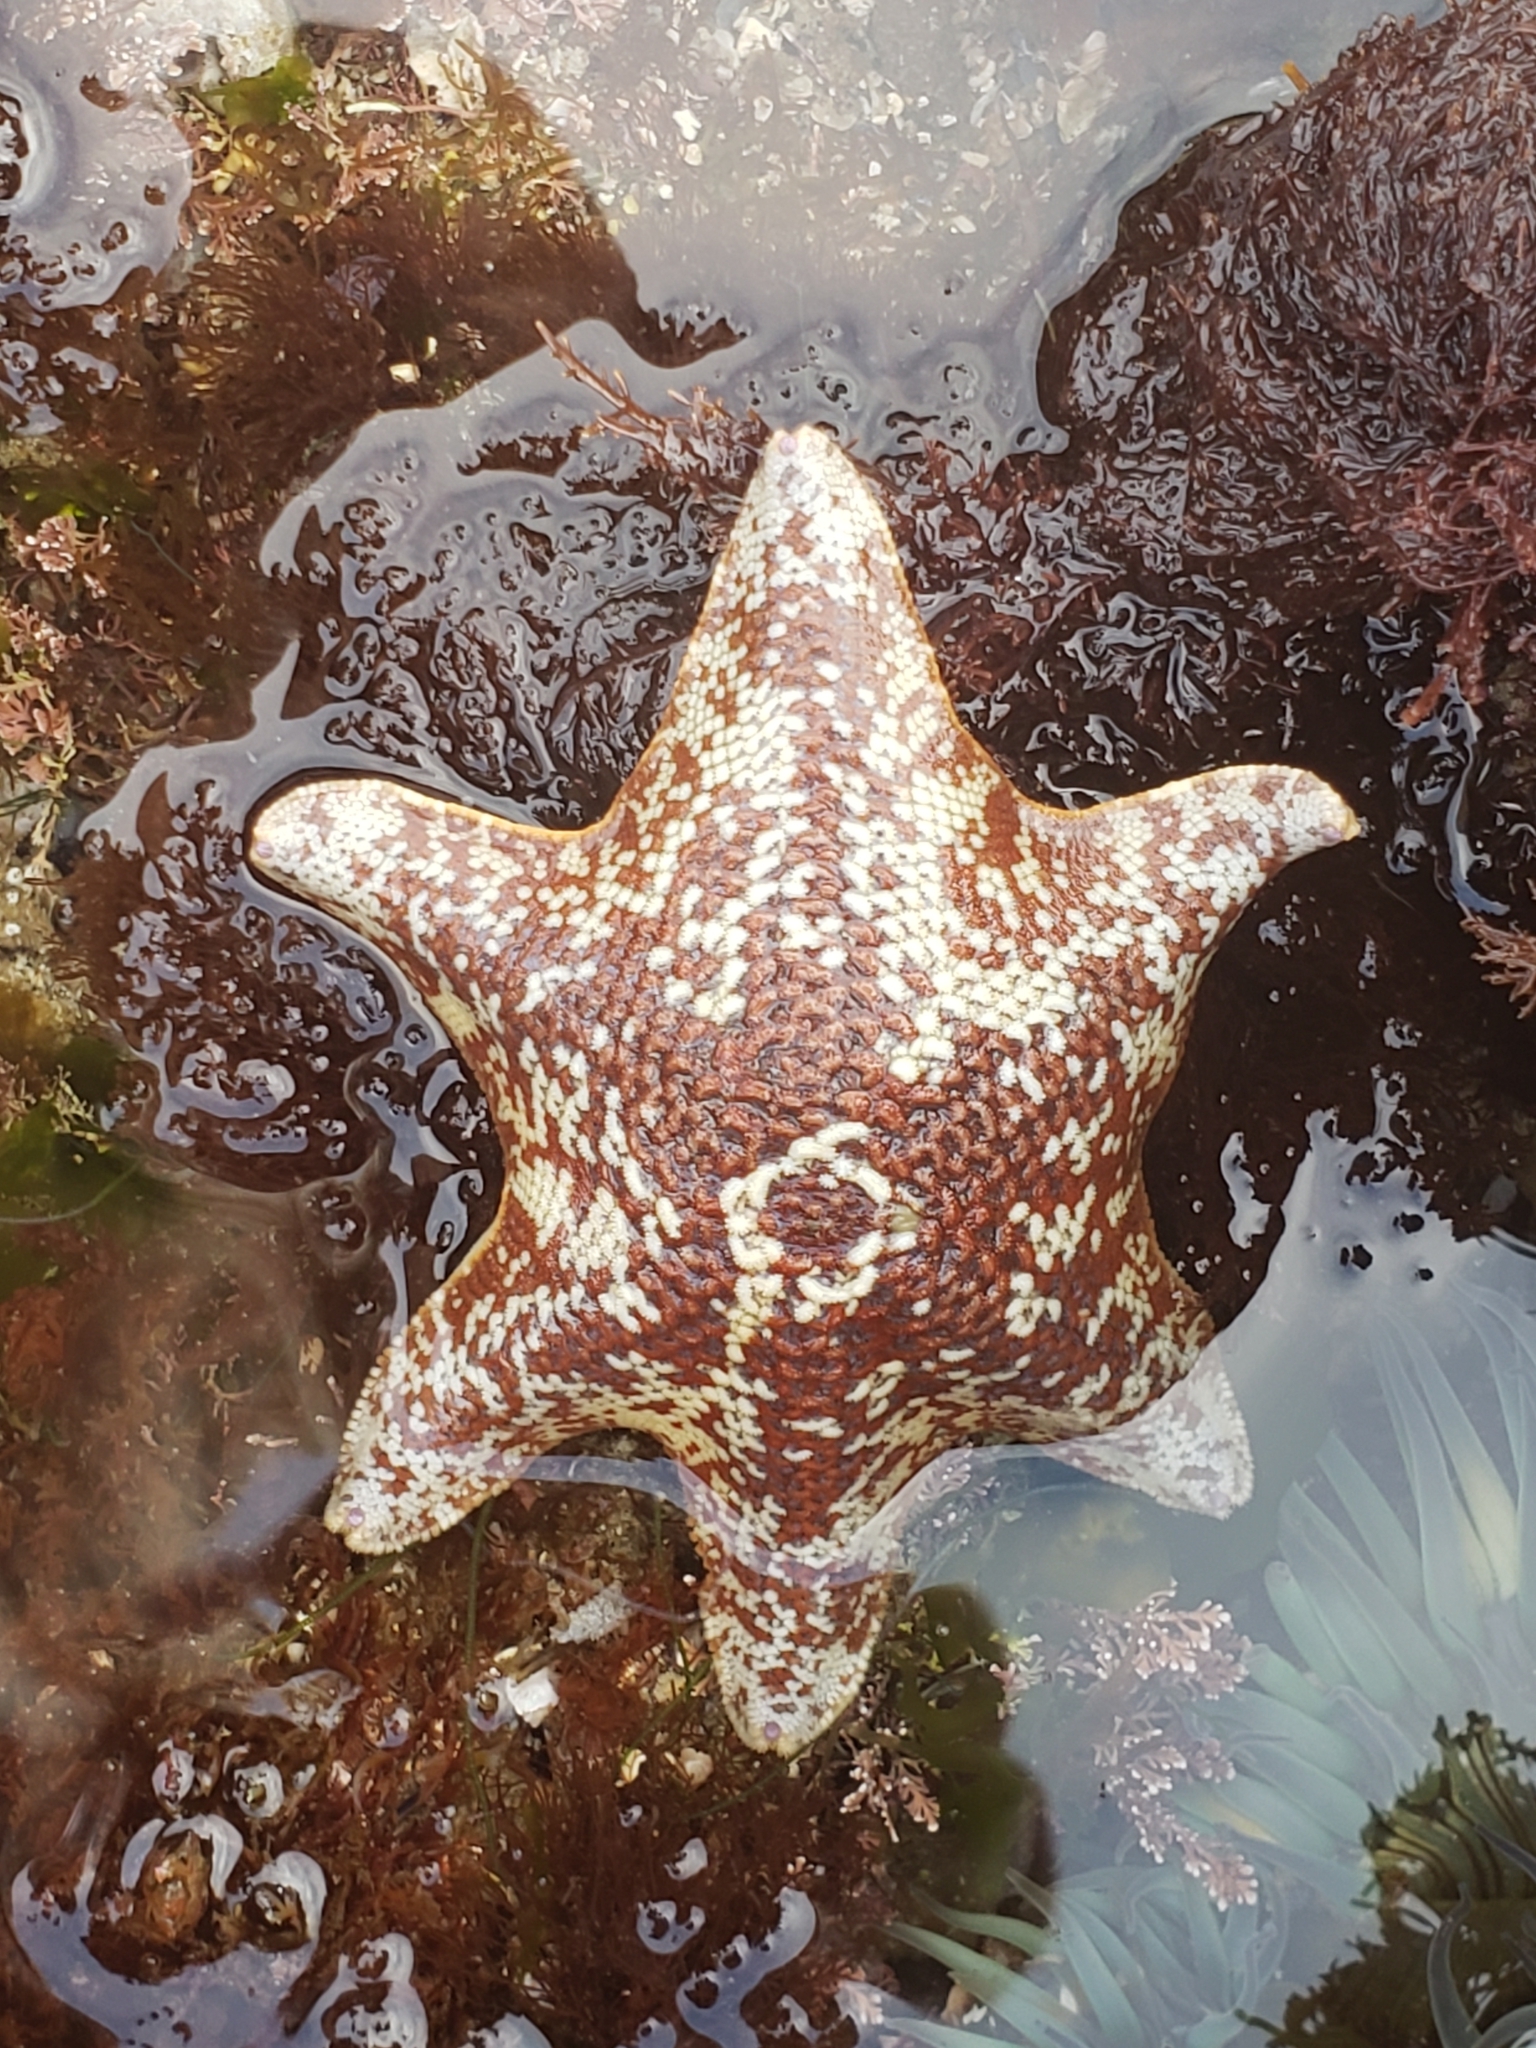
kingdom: Animalia
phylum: Echinodermata
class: Asteroidea
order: Valvatida
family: Asterinidae
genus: Patiria
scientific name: Patiria miniata
